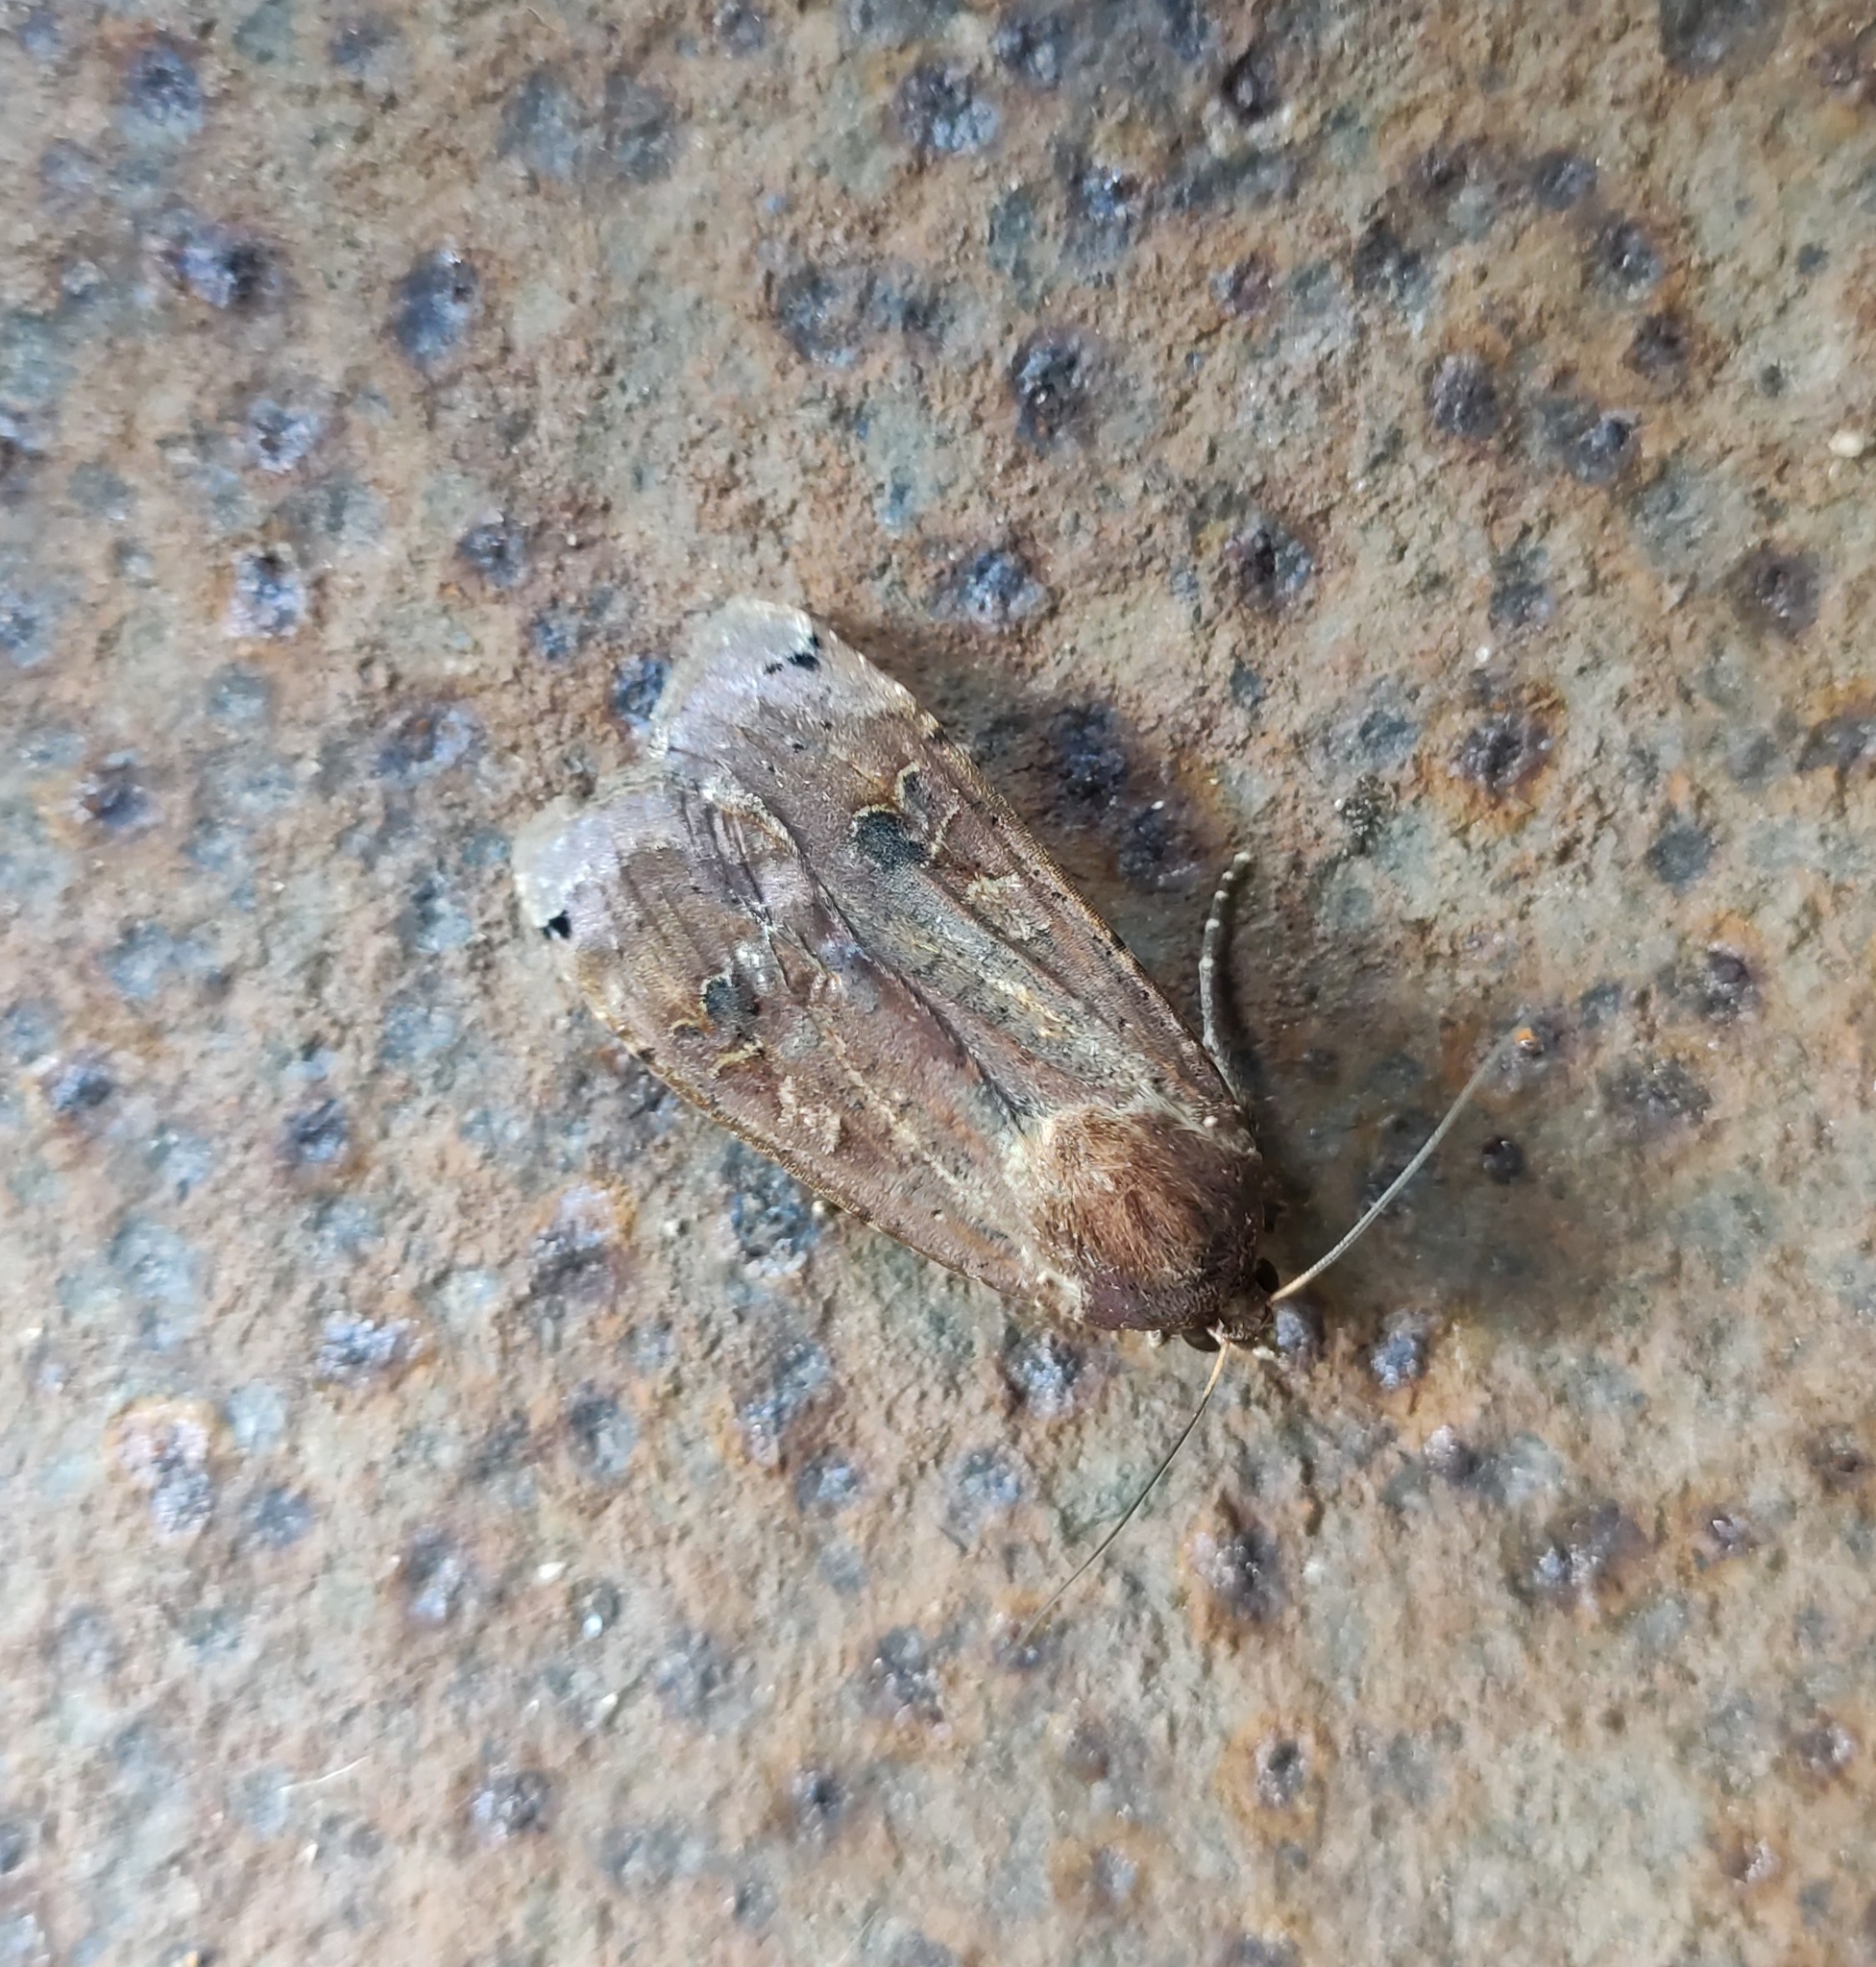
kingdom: Animalia
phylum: Arthropoda
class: Insecta
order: Lepidoptera
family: Noctuidae
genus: Noctua
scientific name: Noctua pronuba
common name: Large yellow underwing
